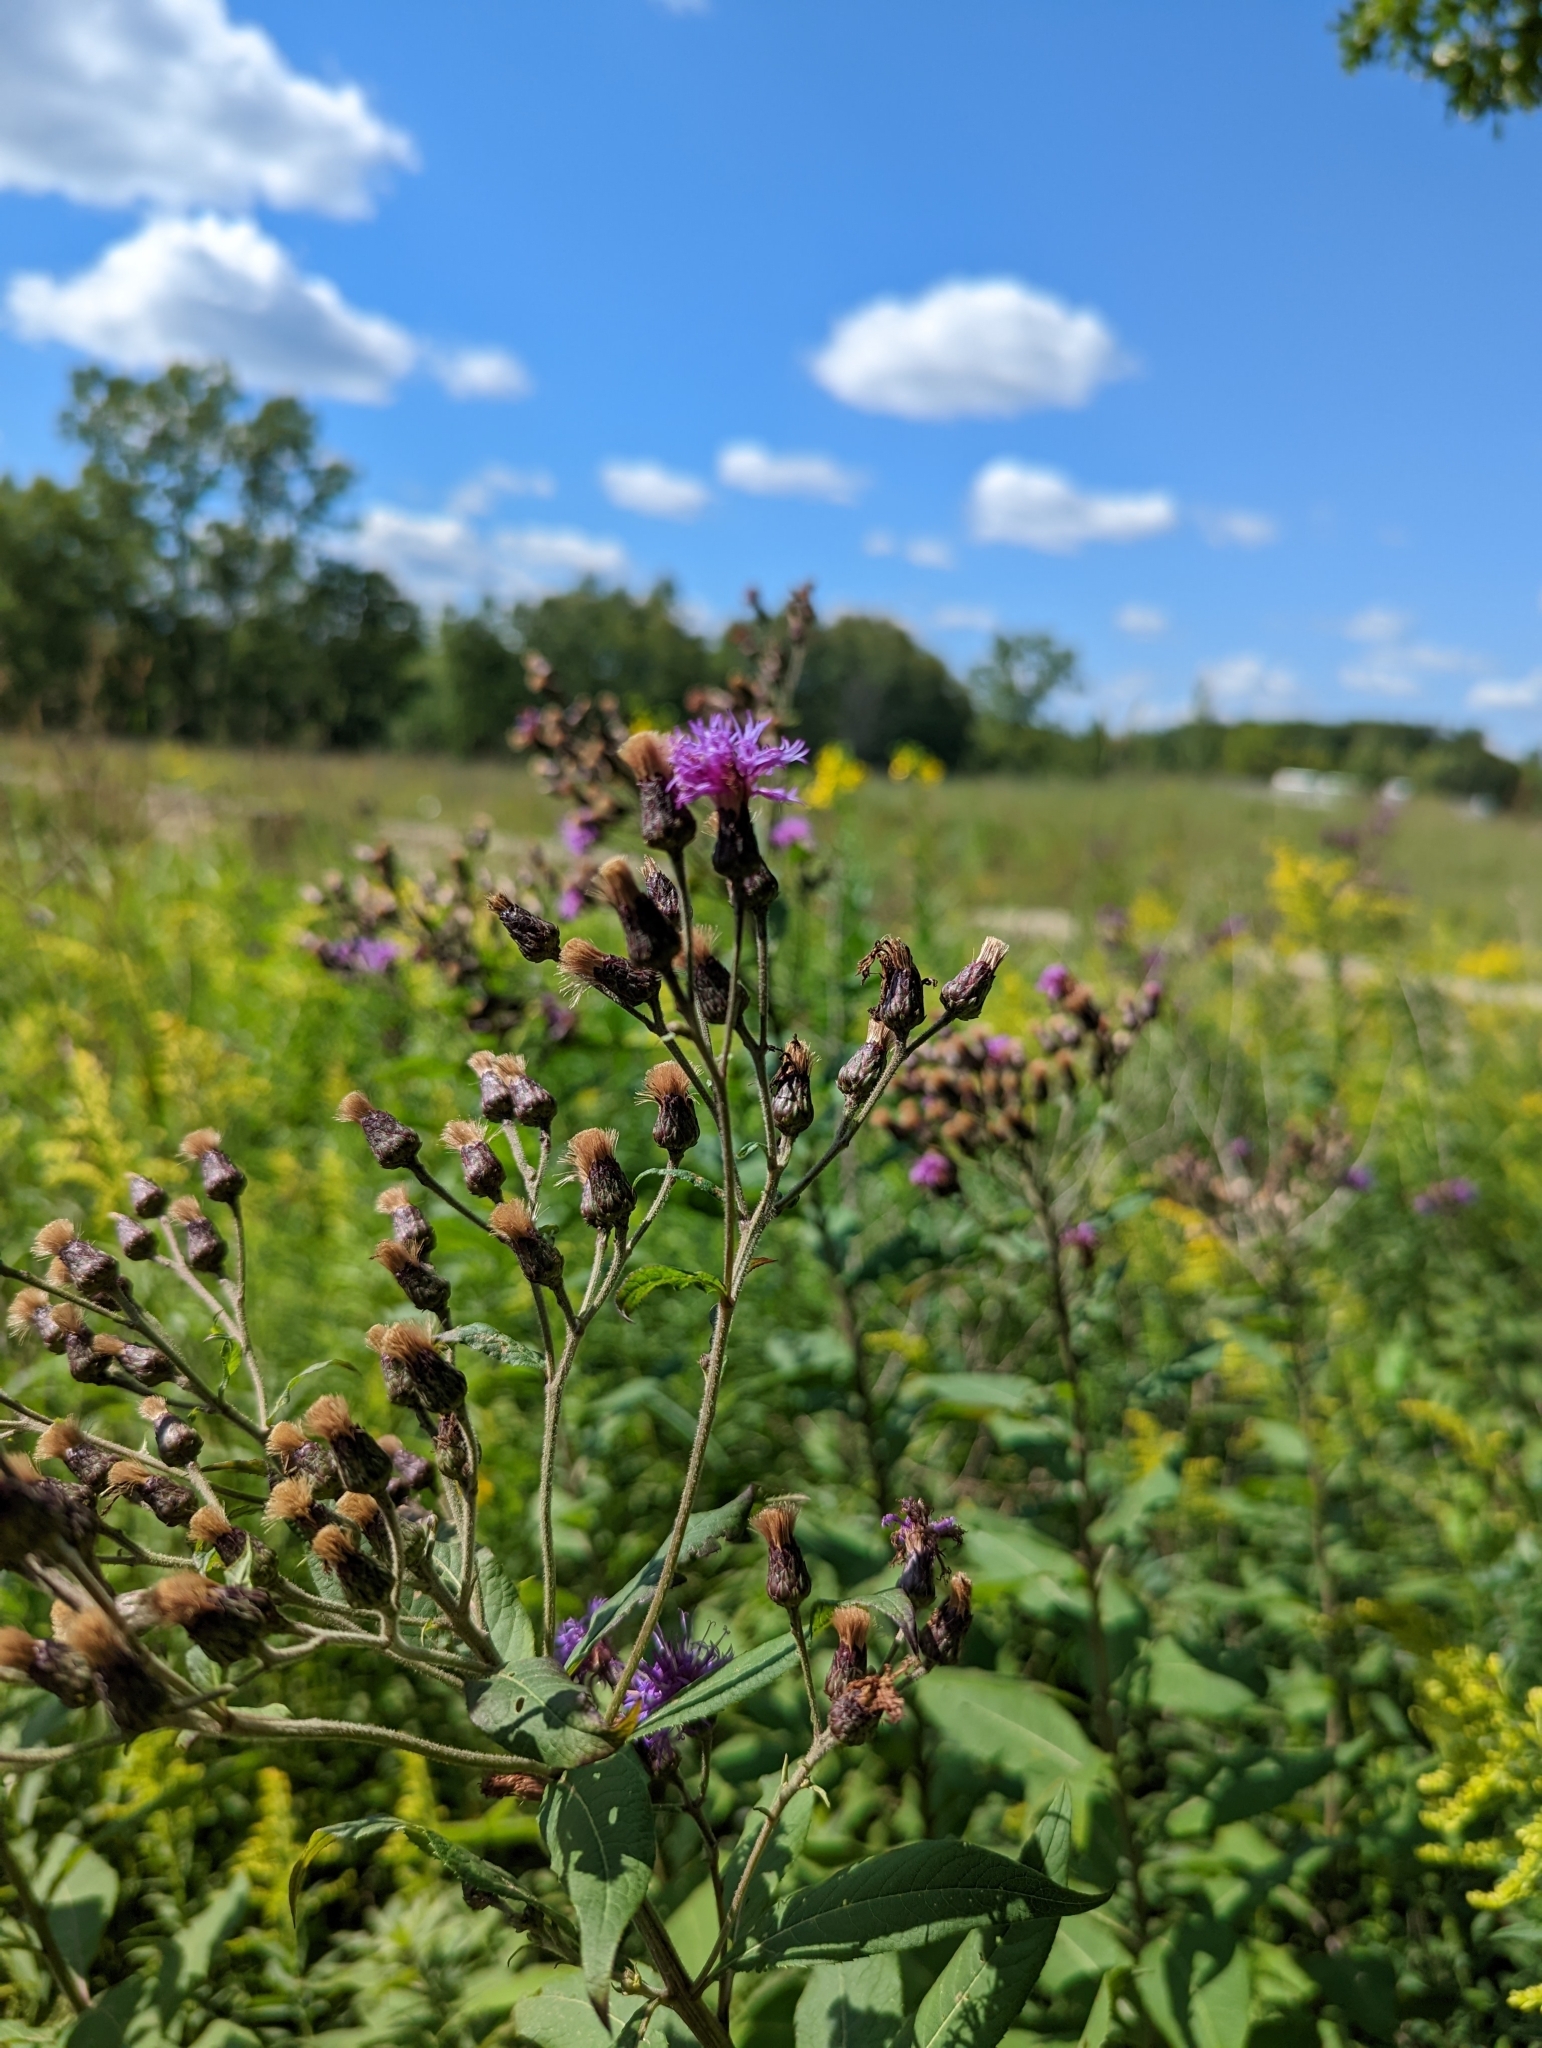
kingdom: Plantae
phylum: Tracheophyta
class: Magnoliopsida
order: Asterales
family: Asteraceae
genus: Vernonia
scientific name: Vernonia gigantea
